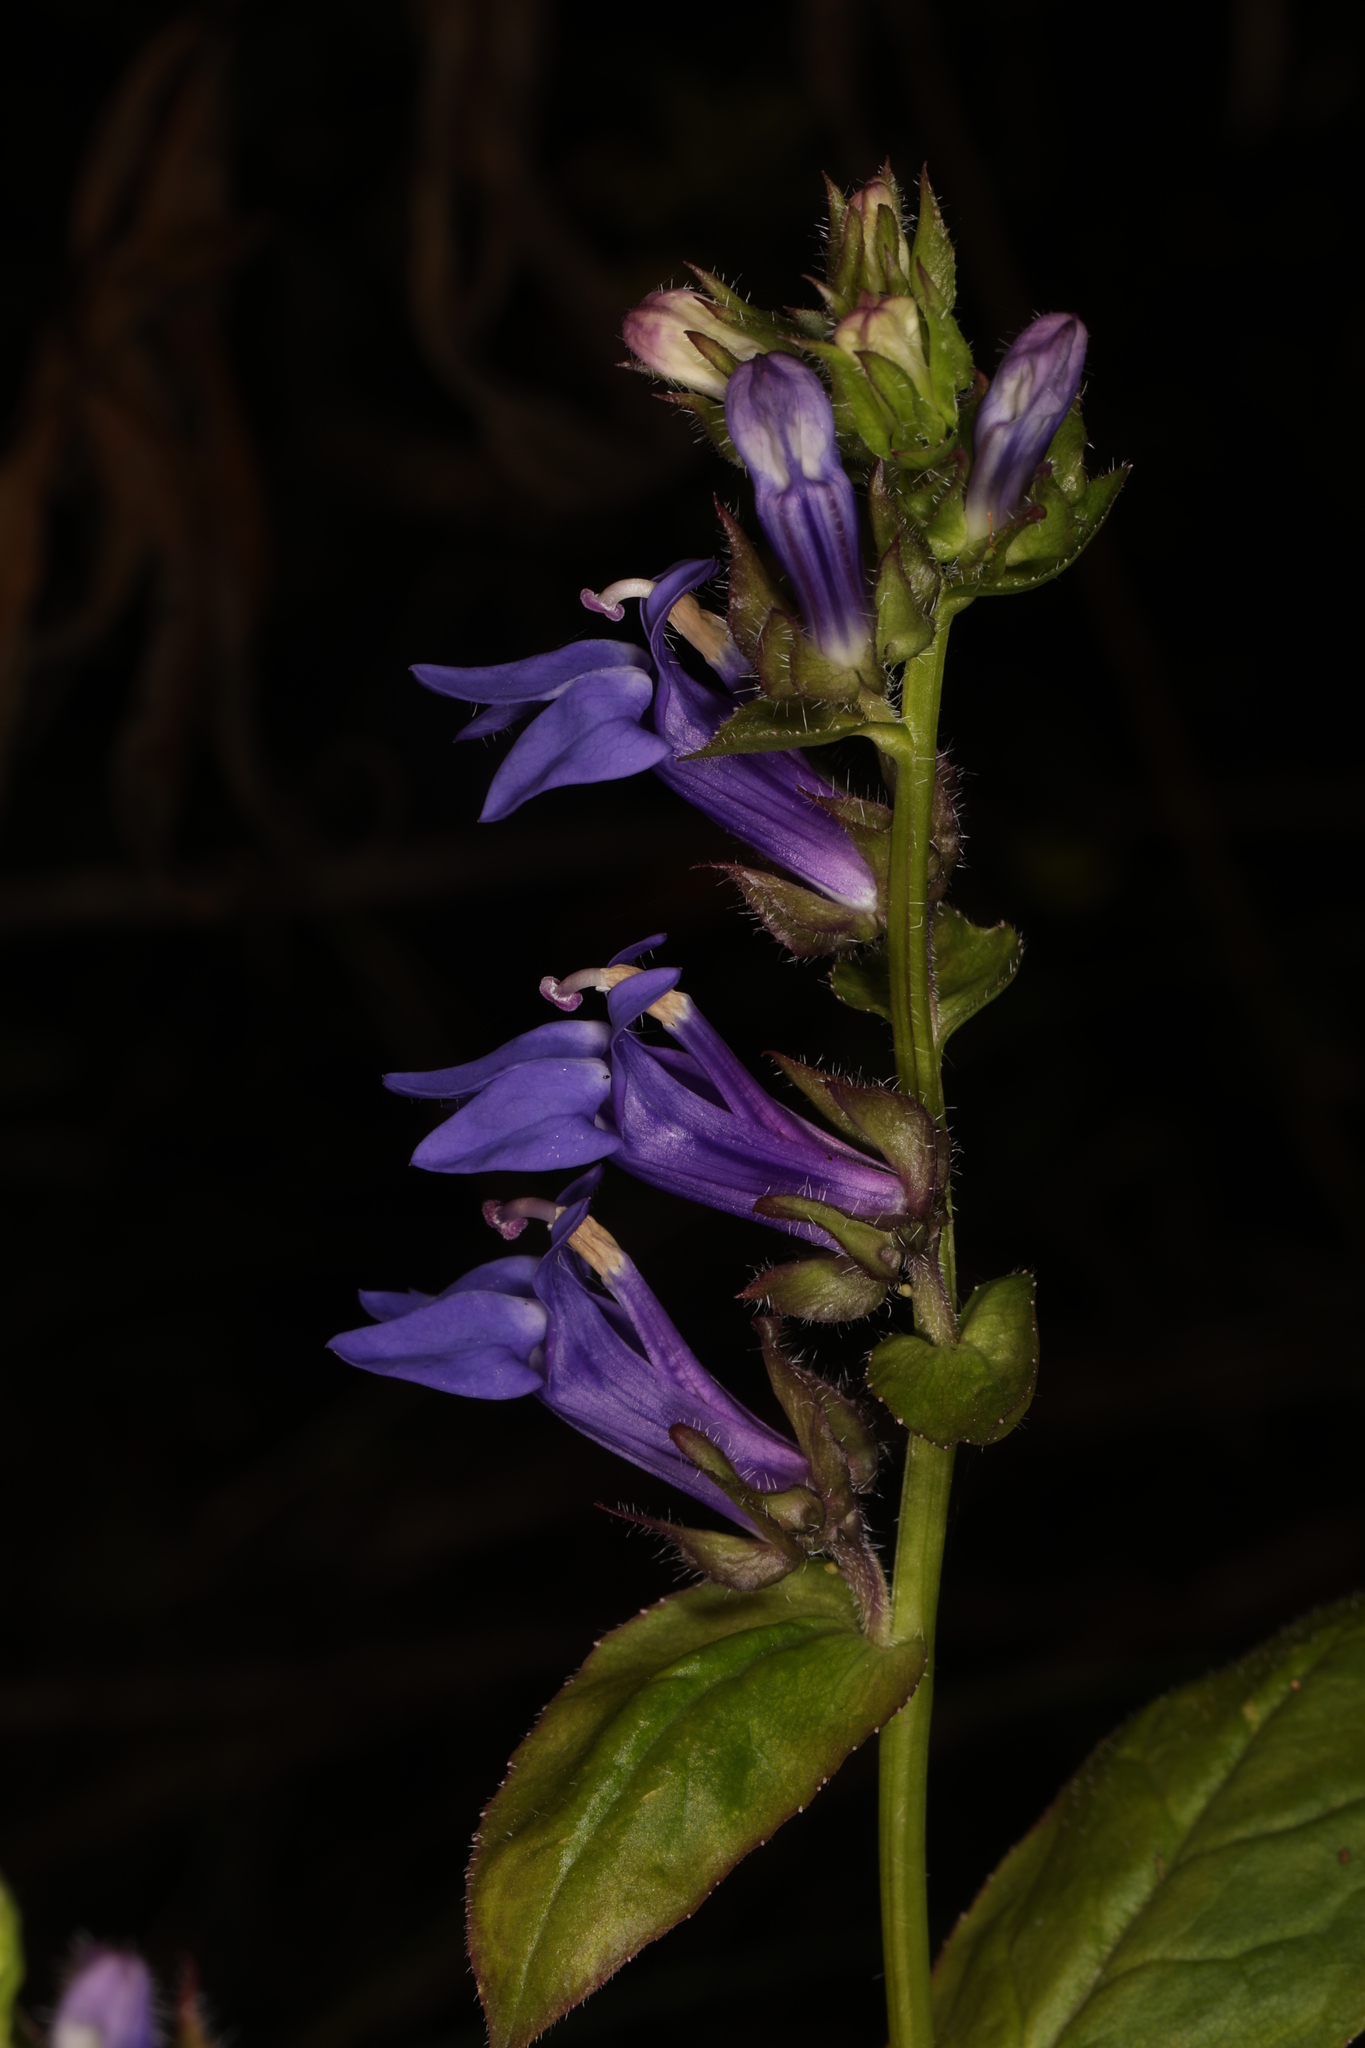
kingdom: Plantae
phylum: Tracheophyta
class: Magnoliopsida
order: Asterales
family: Campanulaceae
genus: Lobelia
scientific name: Lobelia siphilitica
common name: Great lobelia
